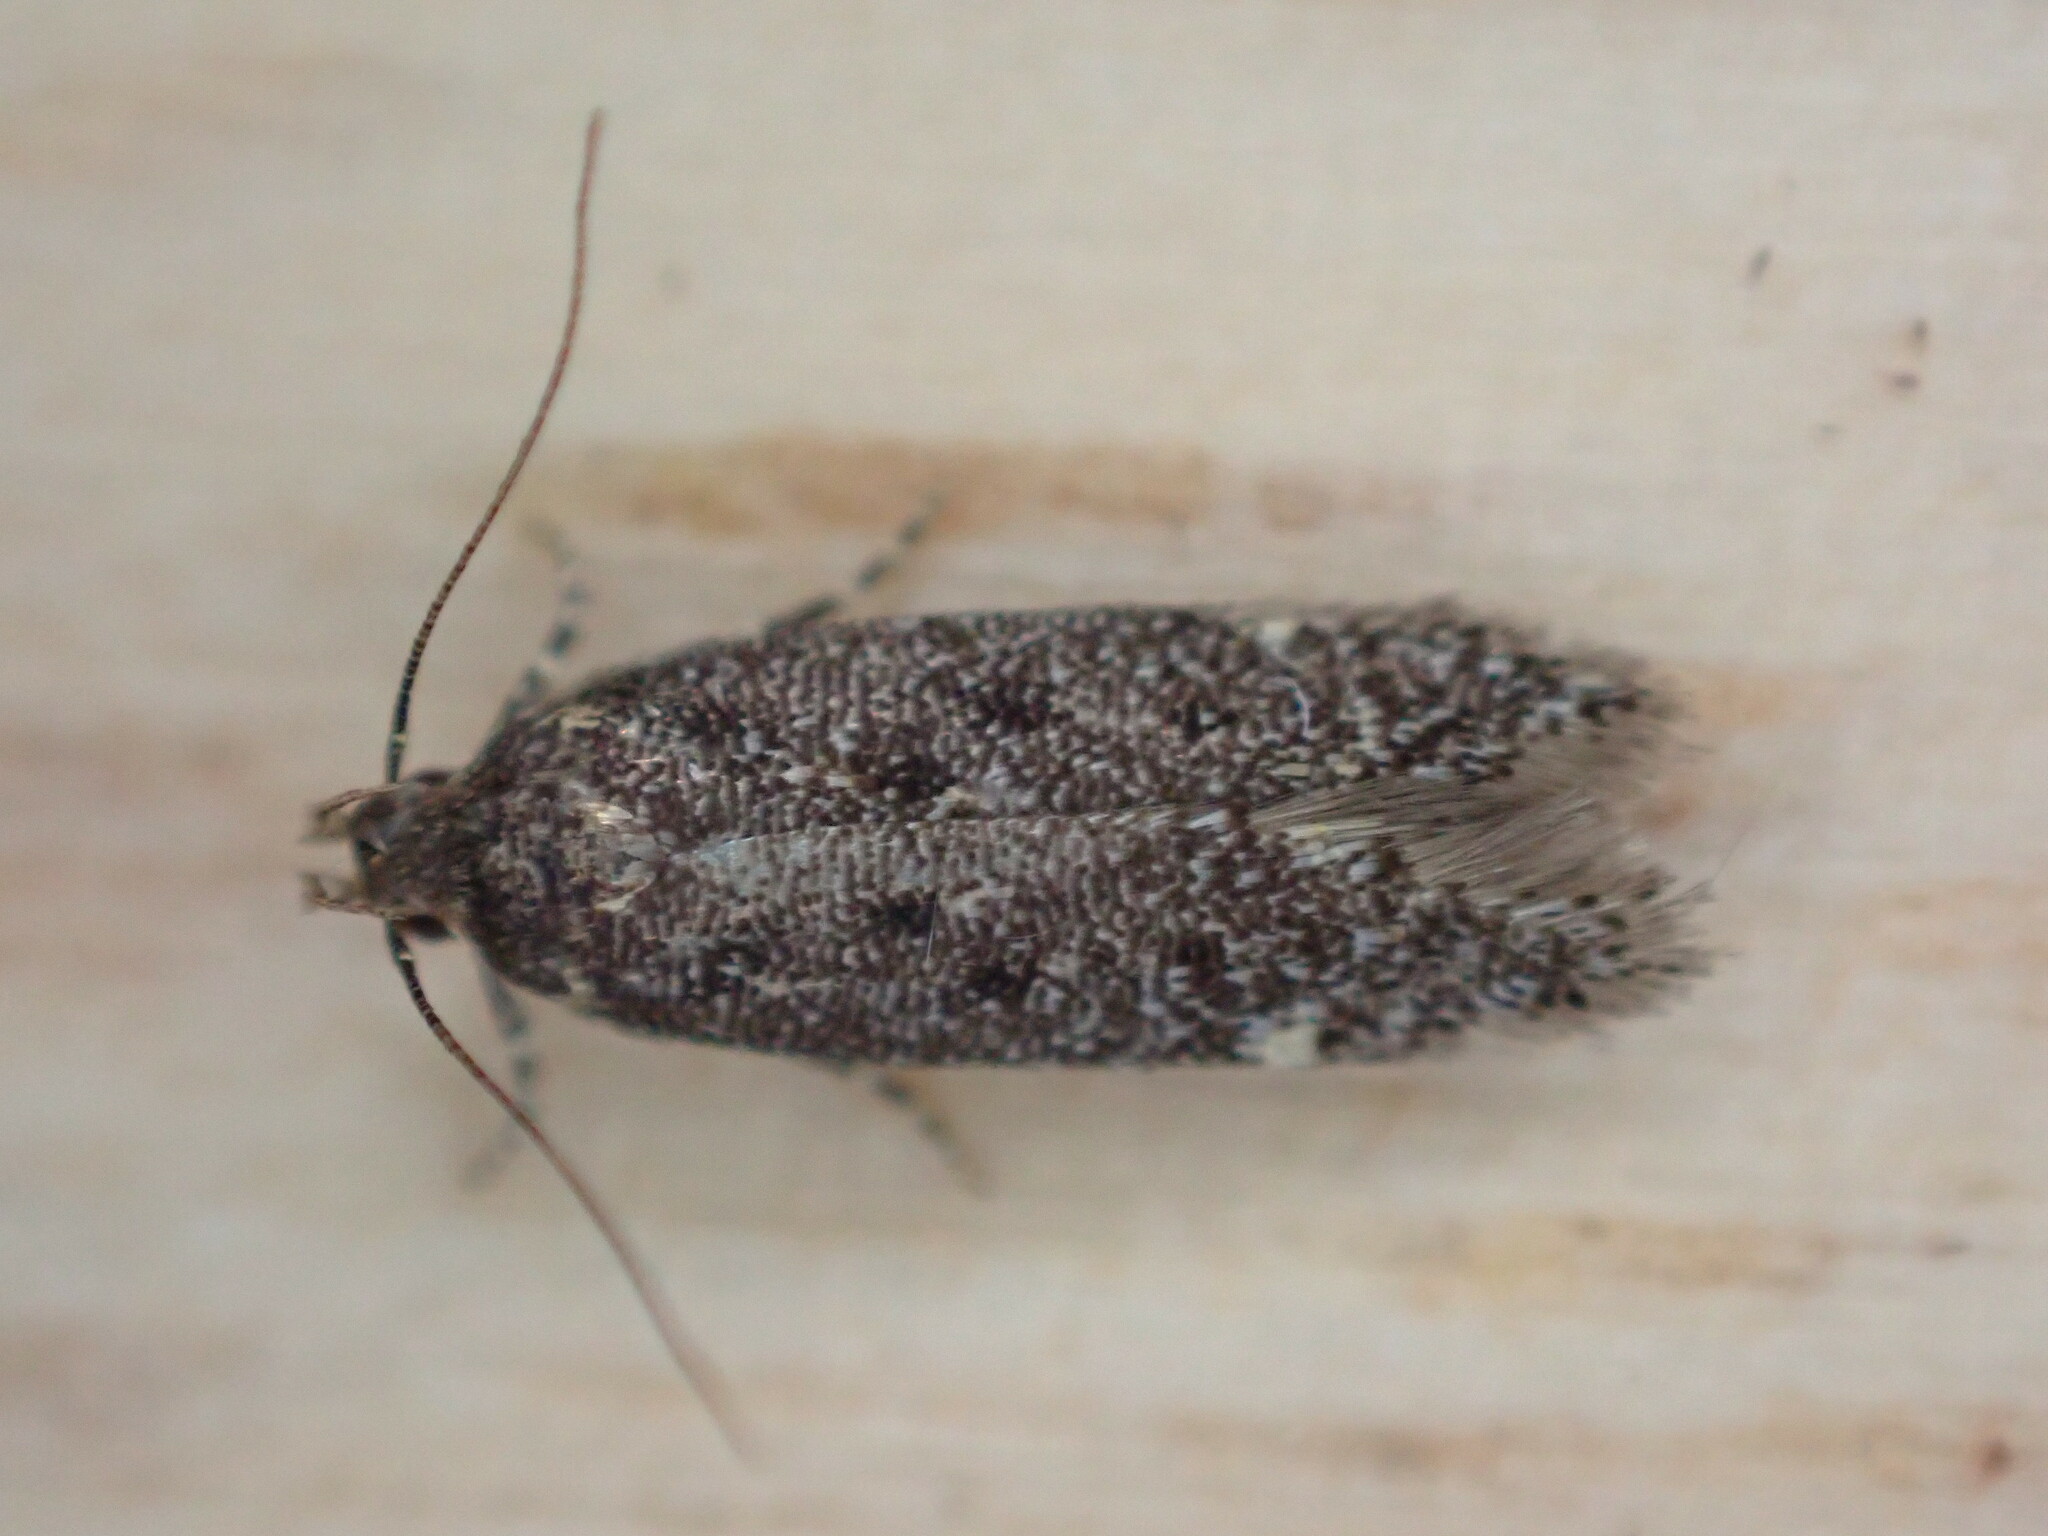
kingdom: Animalia
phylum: Arthropoda
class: Insecta
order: Lepidoptera
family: Gelechiidae
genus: Bryotropha
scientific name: Bryotropha affinis
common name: Dark groundling
